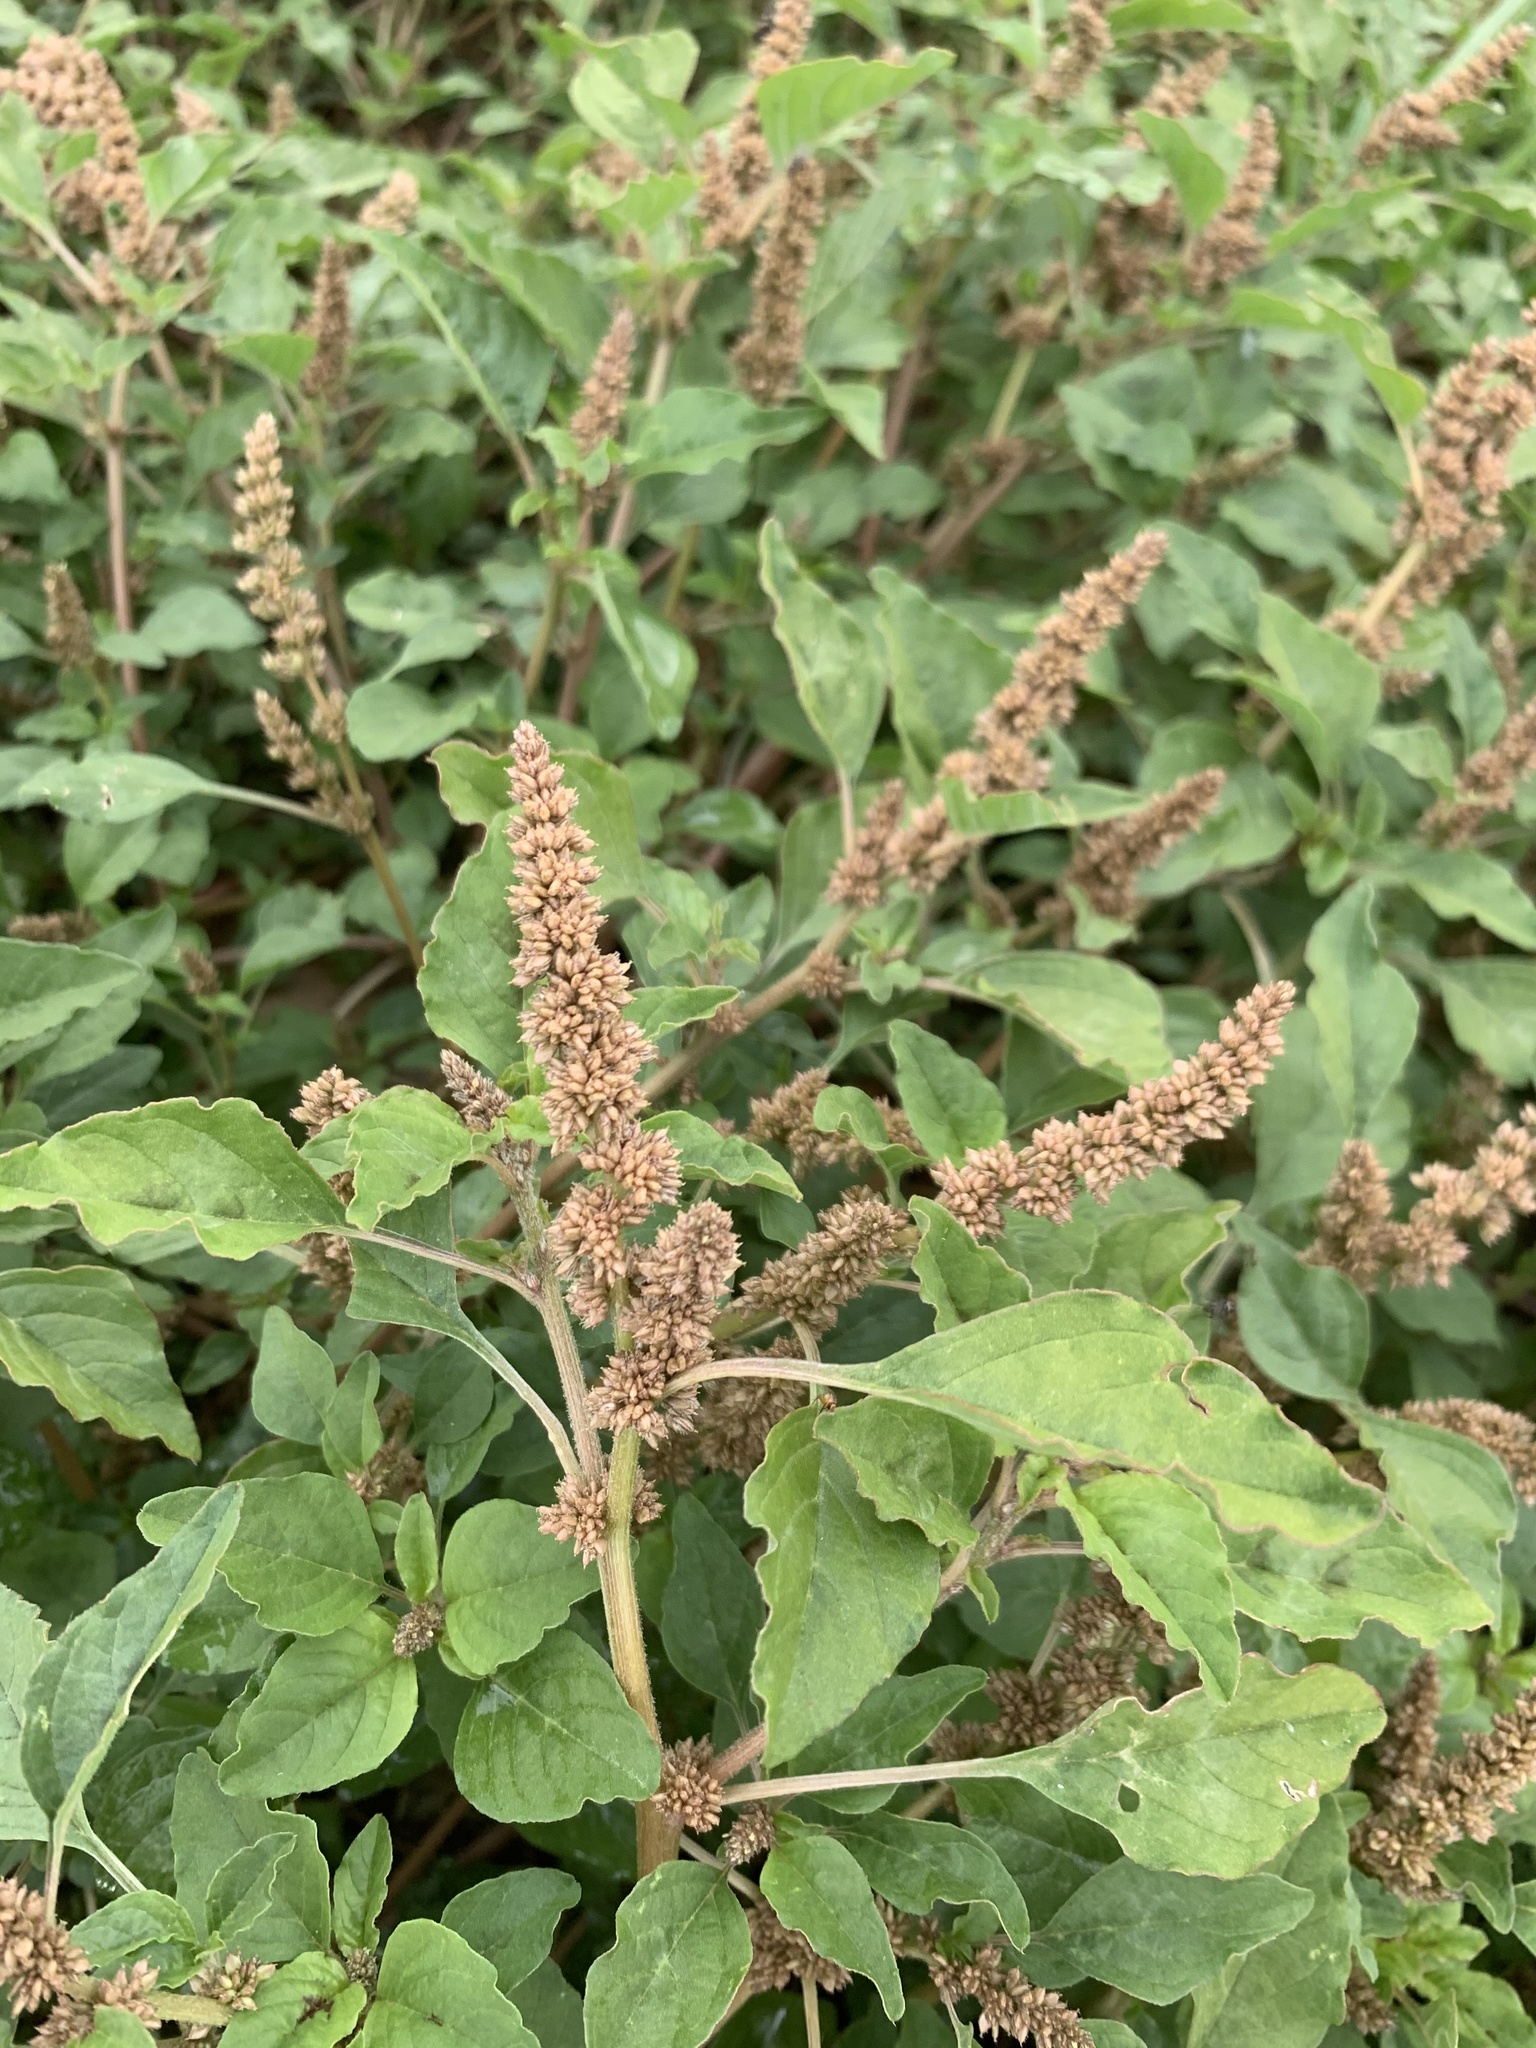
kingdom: Plantae
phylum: Tracheophyta
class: Magnoliopsida
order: Caryophyllales
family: Amaranthaceae
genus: Amaranthus
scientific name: Amaranthus deflexus
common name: Perennial pigweed
